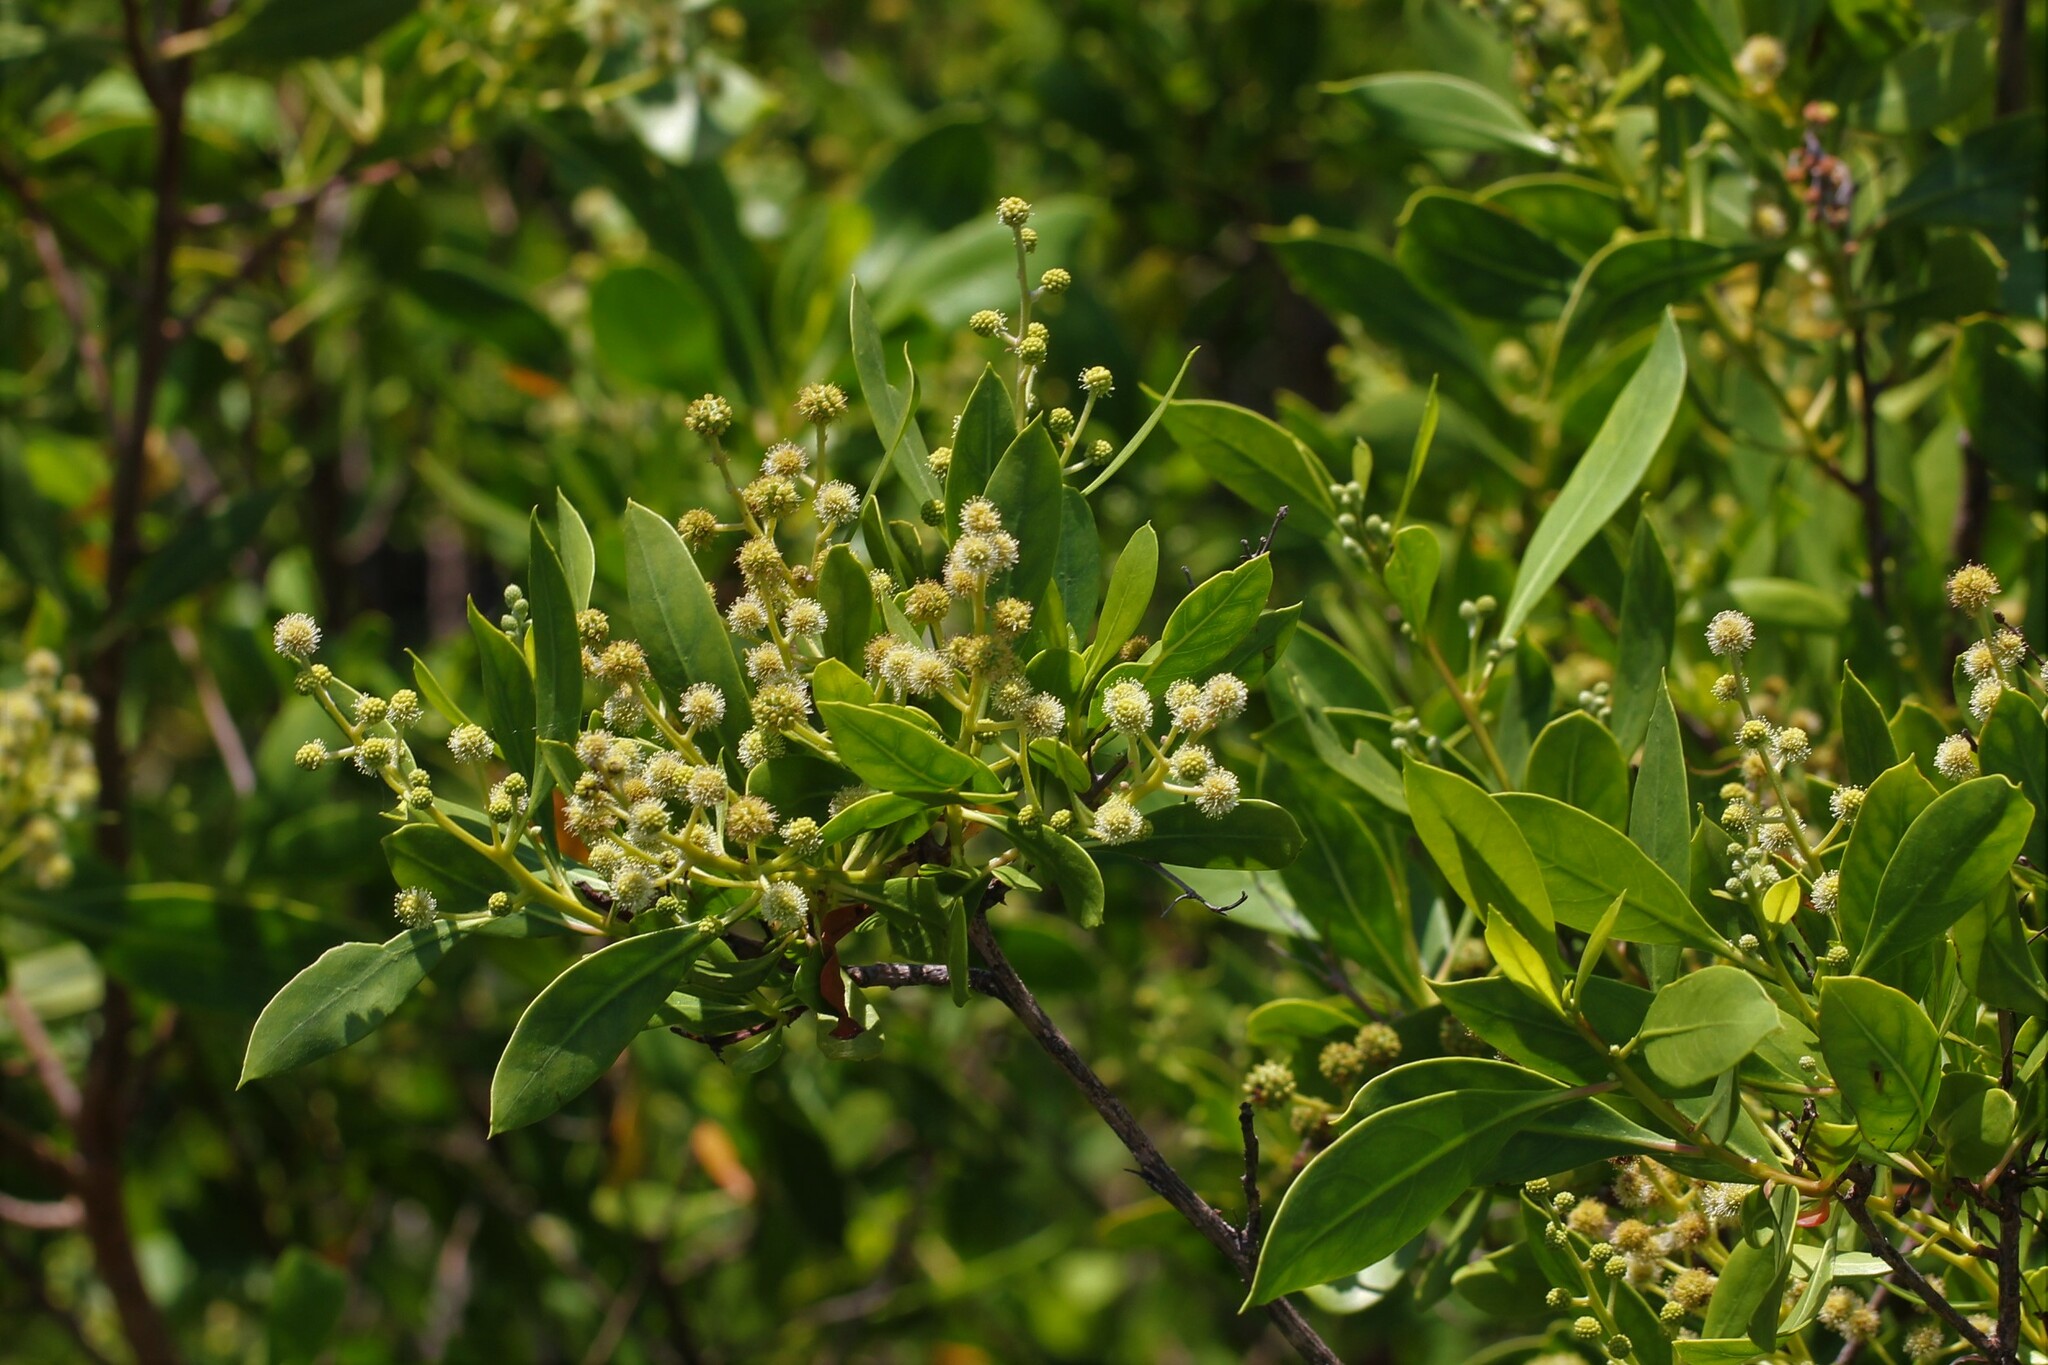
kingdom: Plantae
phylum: Tracheophyta
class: Magnoliopsida
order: Myrtales
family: Combretaceae
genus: Laguncularia
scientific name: Laguncularia racemosa
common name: White mangrove
